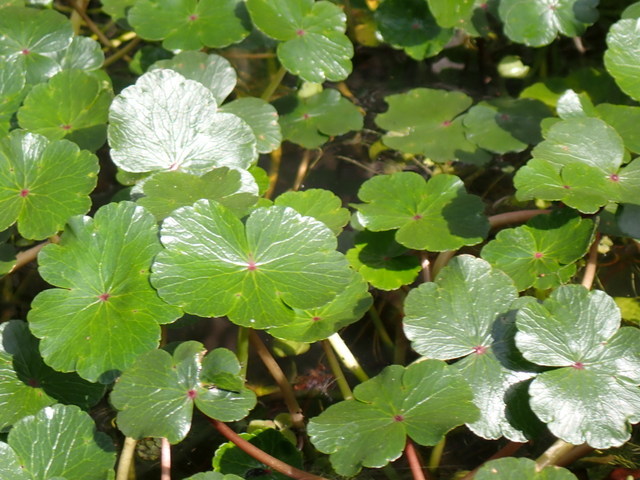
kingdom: Plantae
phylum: Tracheophyta
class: Magnoliopsida
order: Apiales
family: Araliaceae
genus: Hydrocotyle
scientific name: Hydrocotyle ranunculoides
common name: Floating pennywort
